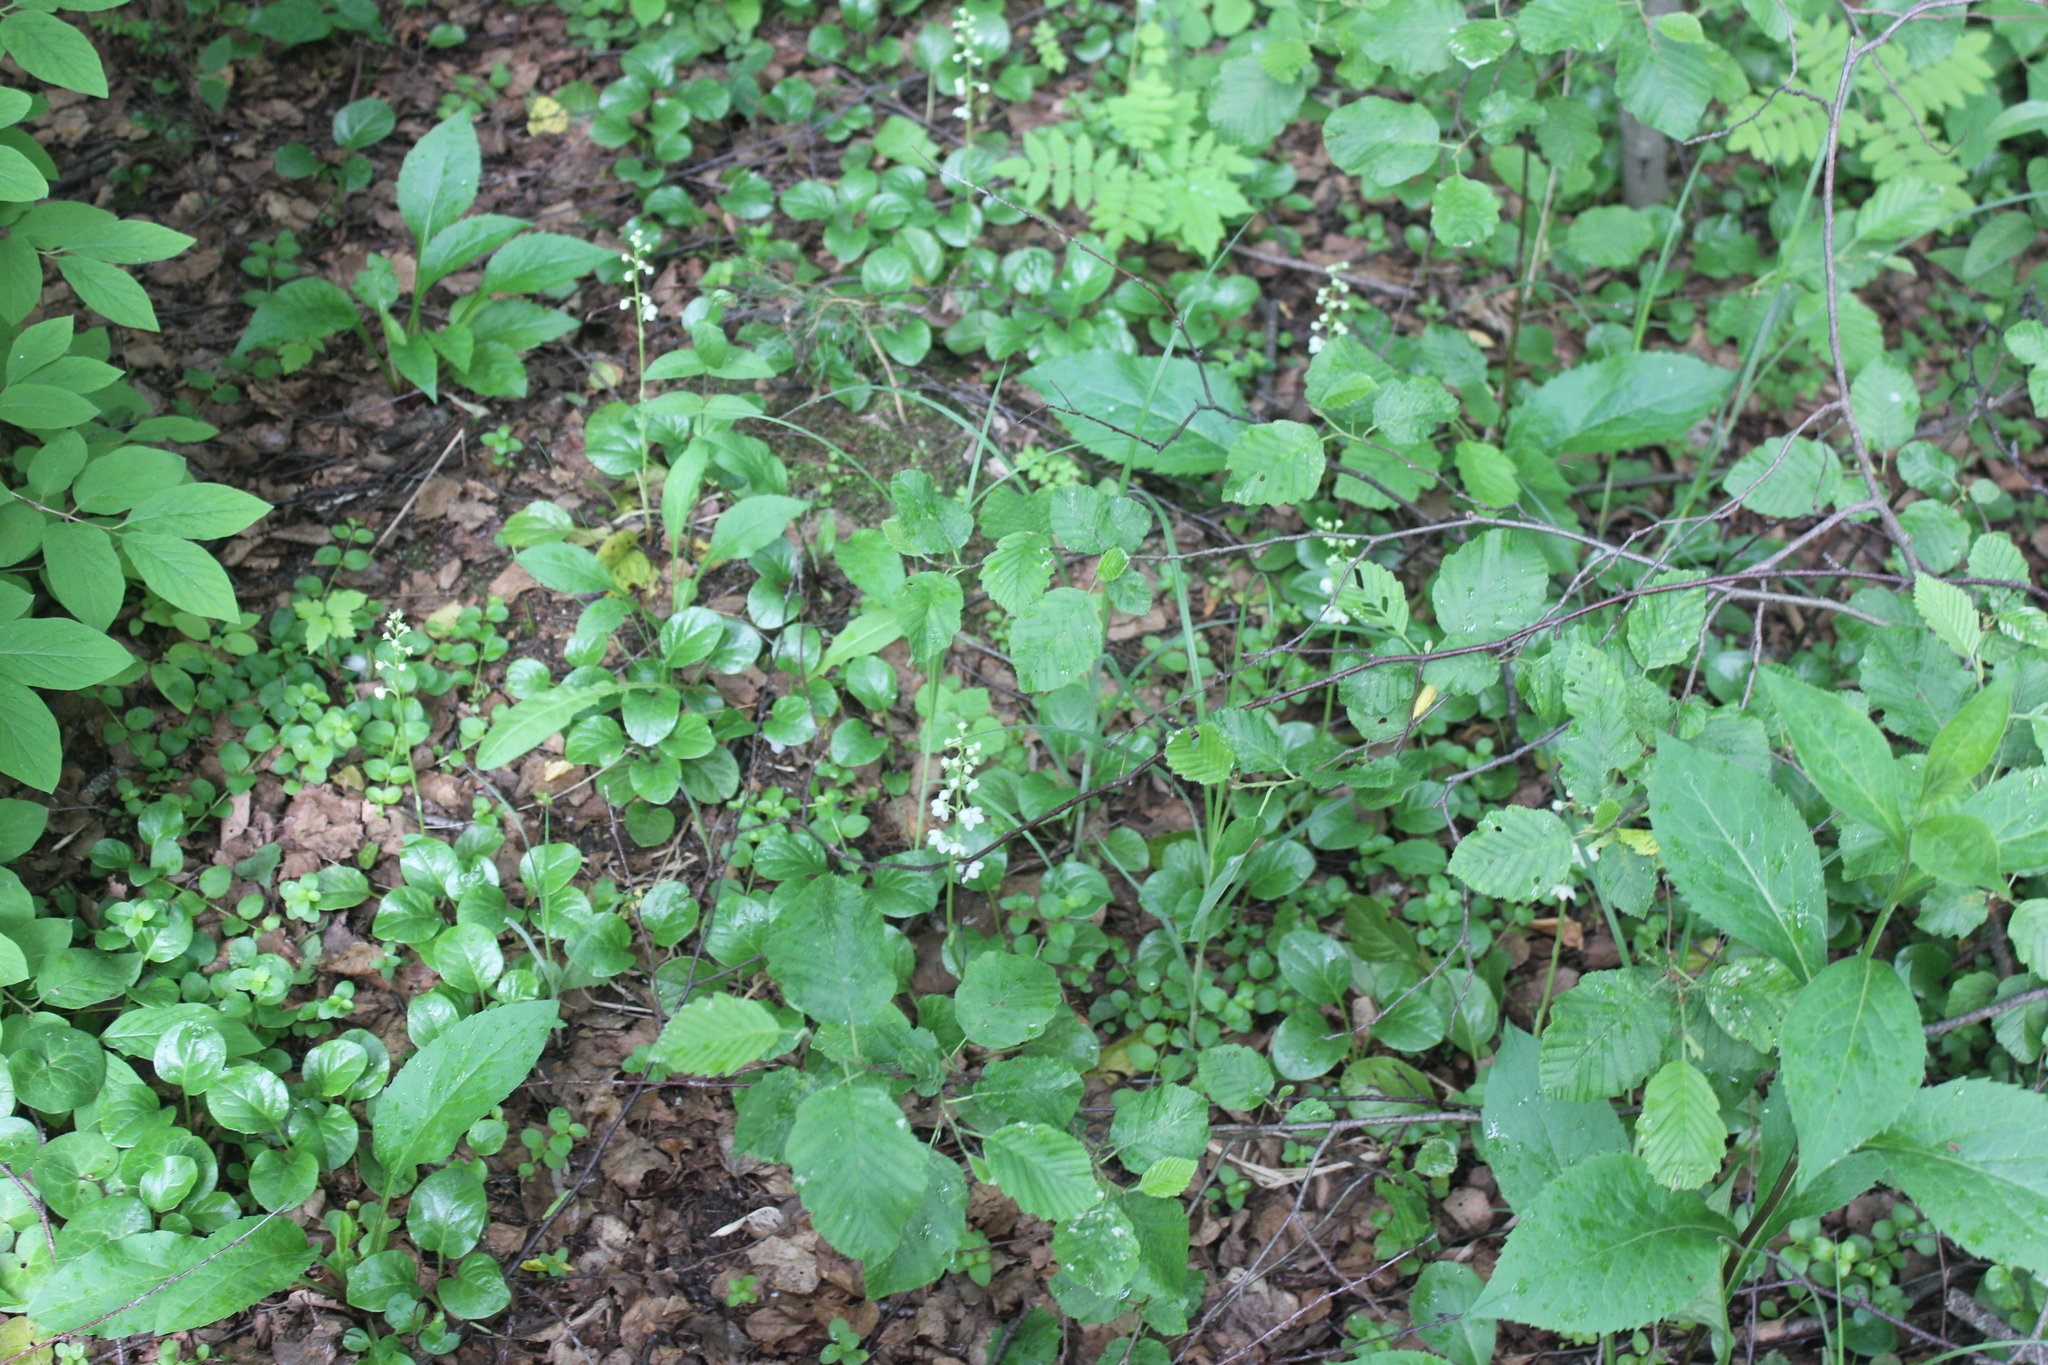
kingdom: Plantae
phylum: Tracheophyta
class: Magnoliopsida
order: Ericales
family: Ericaceae
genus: Pyrola
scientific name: Pyrola rotundifolia
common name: Round-leaved wintergreen
